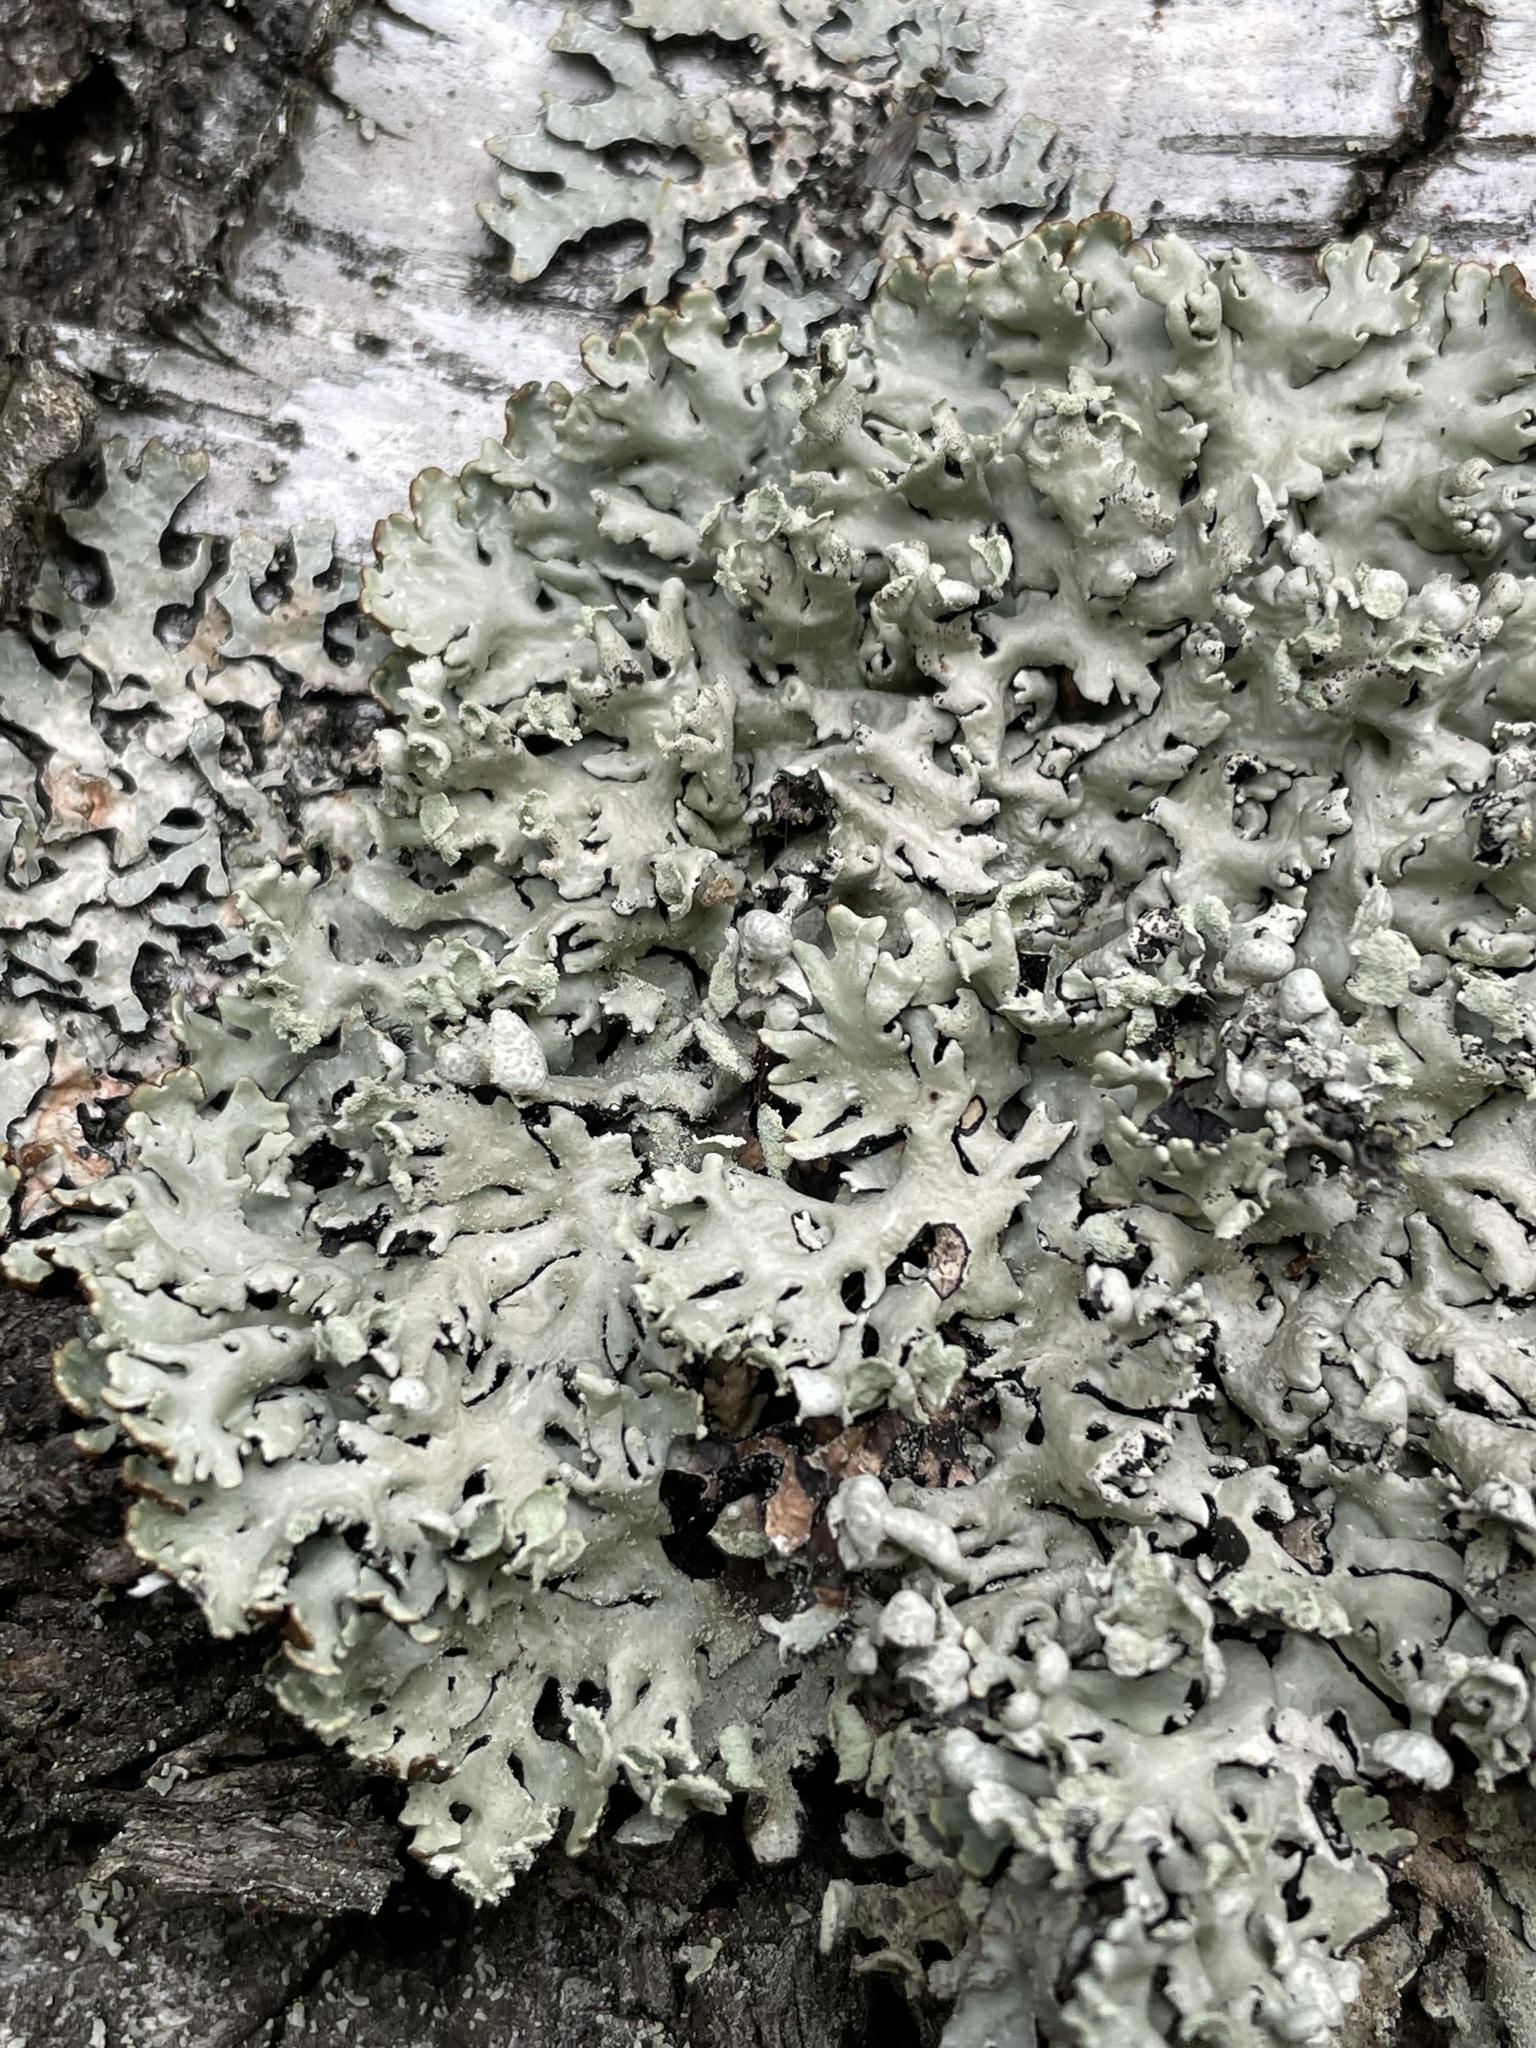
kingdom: Fungi
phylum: Ascomycota
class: Lecanoromycetes
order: Lecanorales
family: Parmeliaceae
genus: Hypogymnia
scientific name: Hypogymnia physodes
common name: Dark crottle
